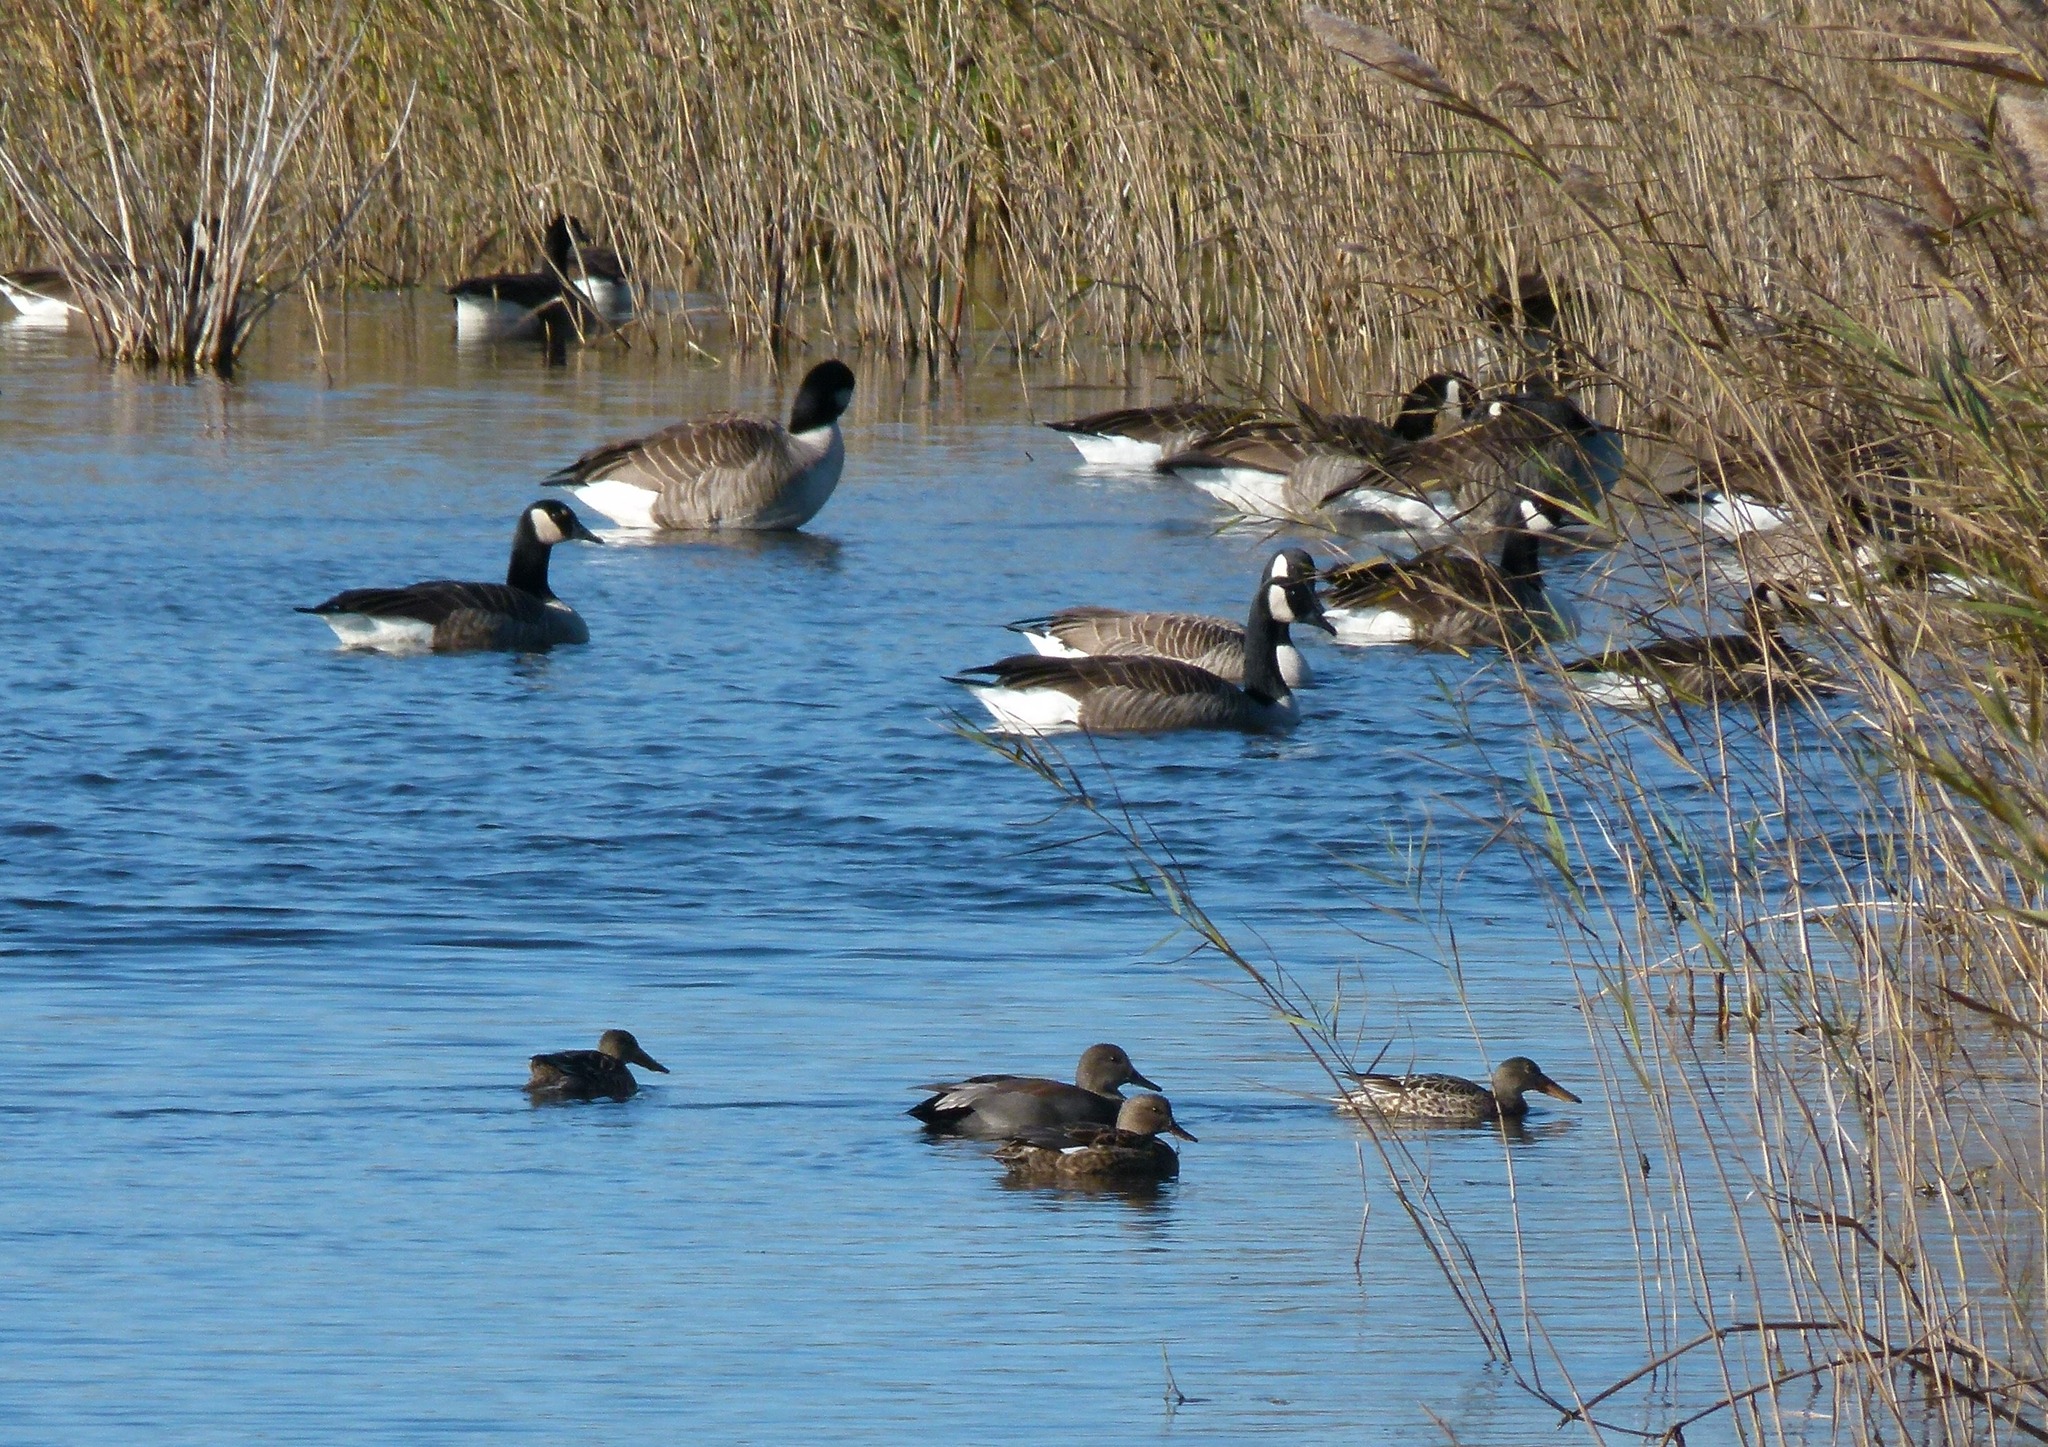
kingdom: Animalia
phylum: Chordata
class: Aves
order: Anseriformes
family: Anatidae
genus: Branta
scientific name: Branta canadensis
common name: Canada goose
